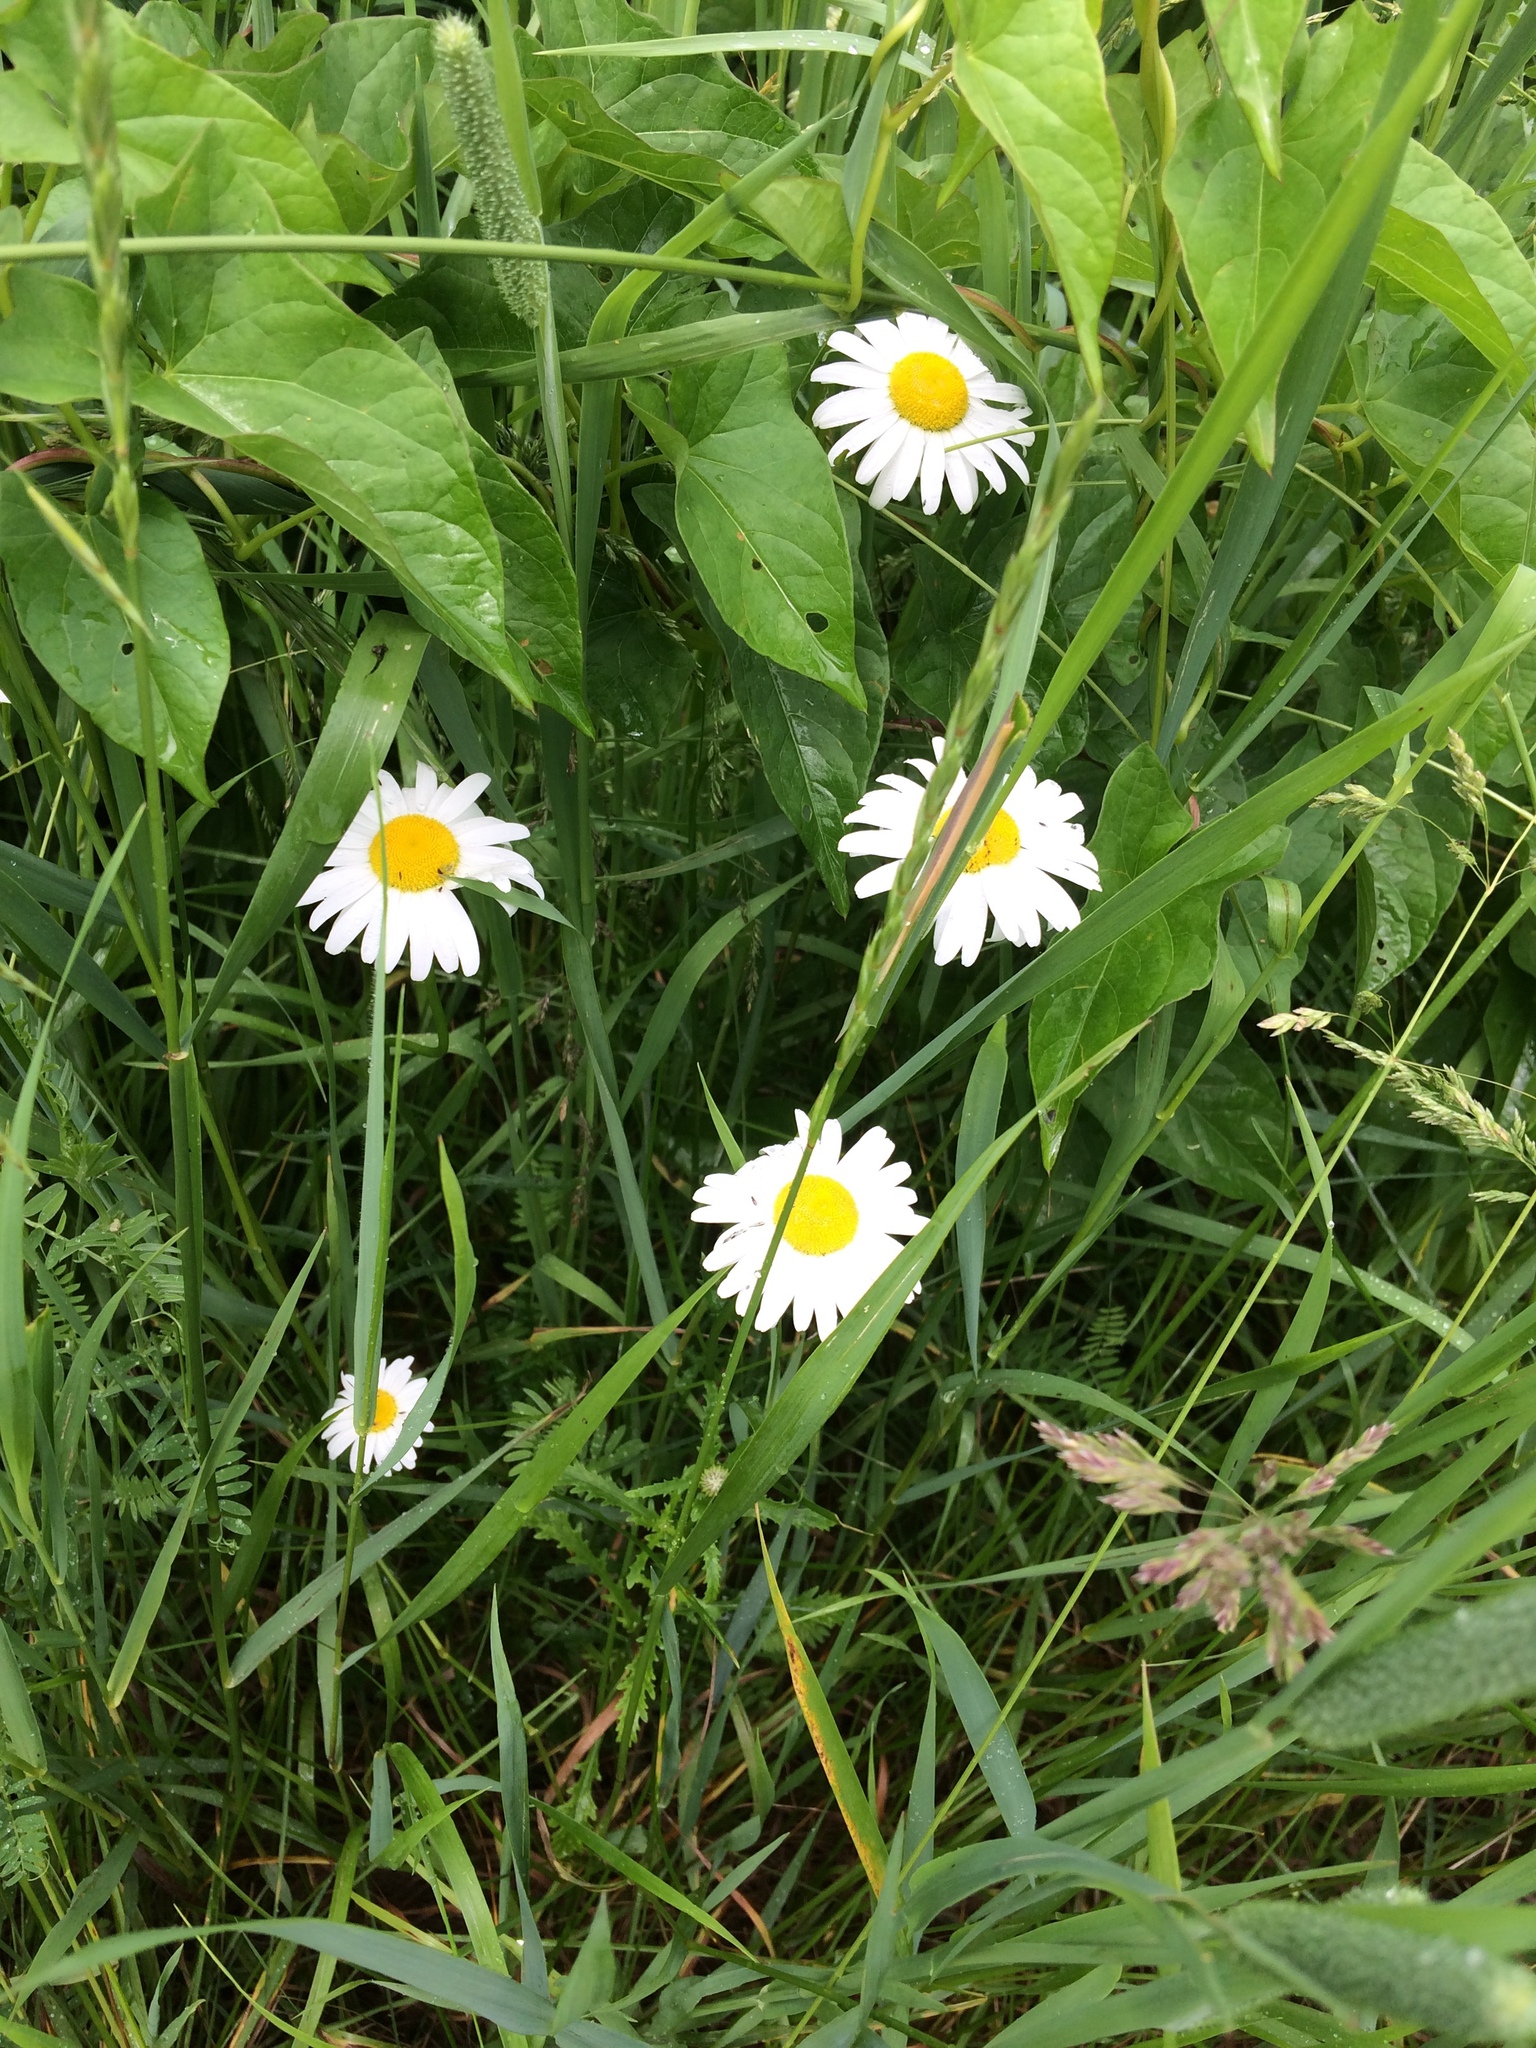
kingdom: Plantae
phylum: Tracheophyta
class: Magnoliopsida
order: Asterales
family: Asteraceae
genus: Leucanthemum
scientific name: Leucanthemum vulgare
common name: Oxeye daisy
